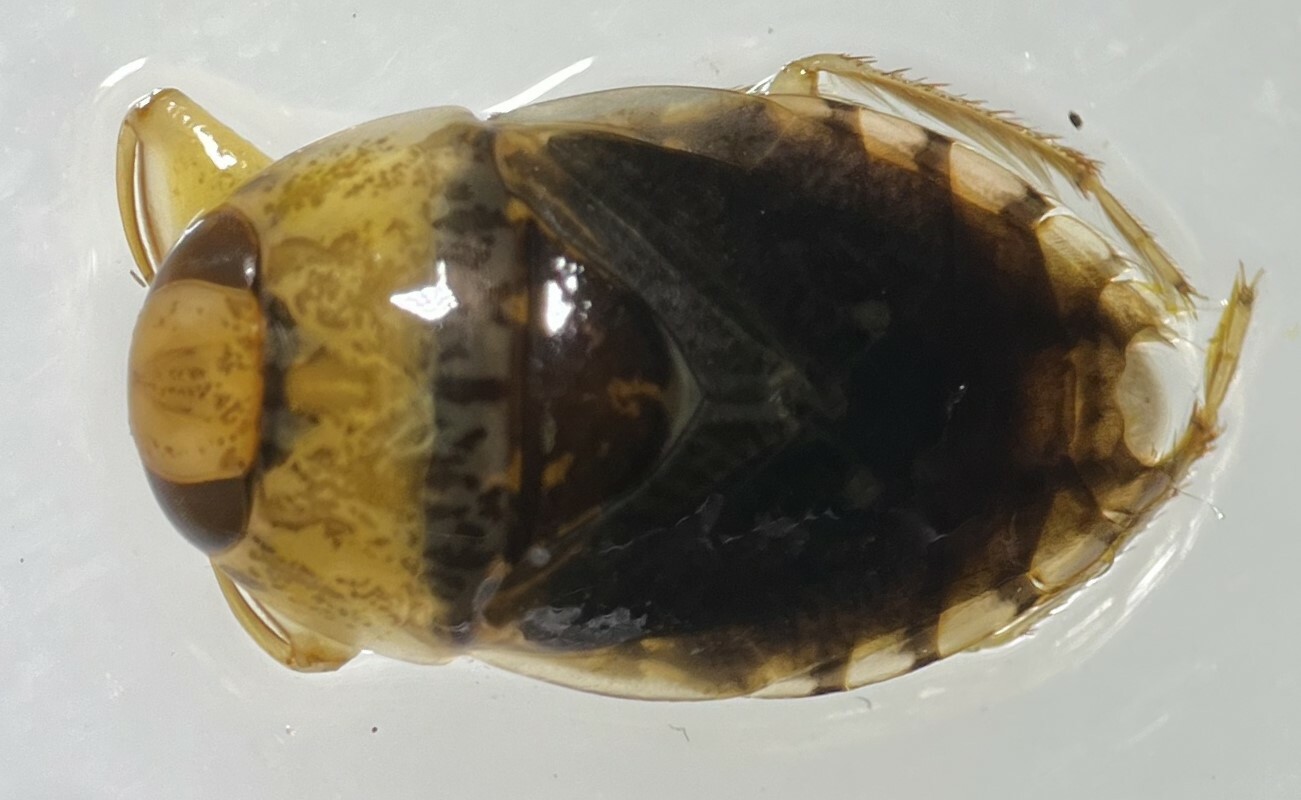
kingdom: Animalia
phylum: Arthropoda
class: Insecta
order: Hemiptera
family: Naucoridae
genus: Pelocoris
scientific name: Pelocoris biimpressus
